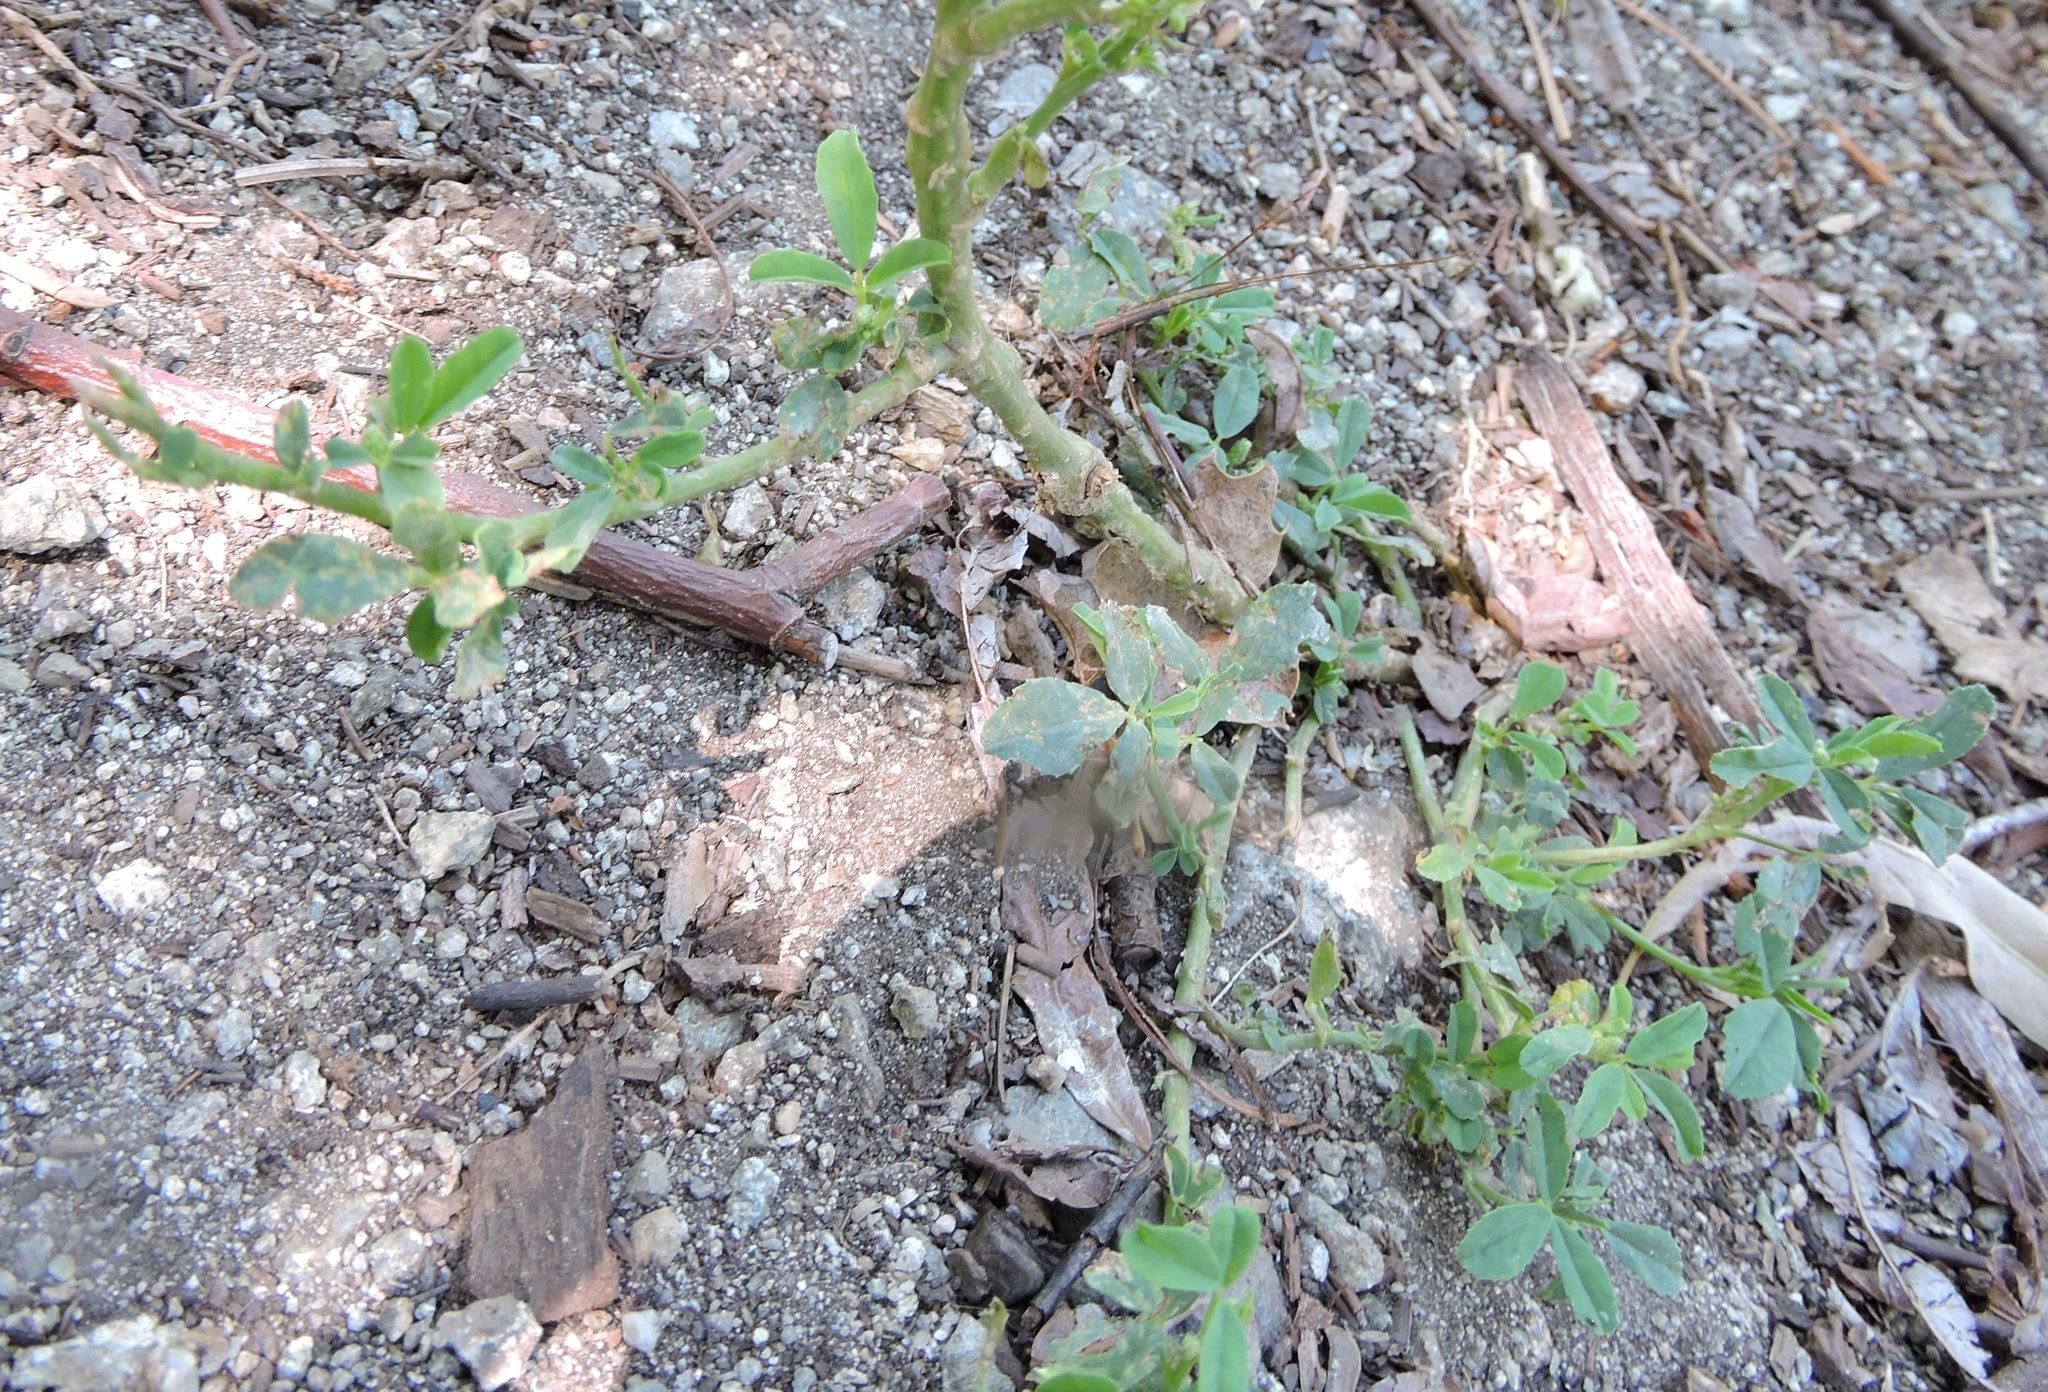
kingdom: Plantae
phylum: Tracheophyta
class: Magnoliopsida
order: Fabales
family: Fabaceae
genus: Melilotus
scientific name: Melilotus albus
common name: White melilot
